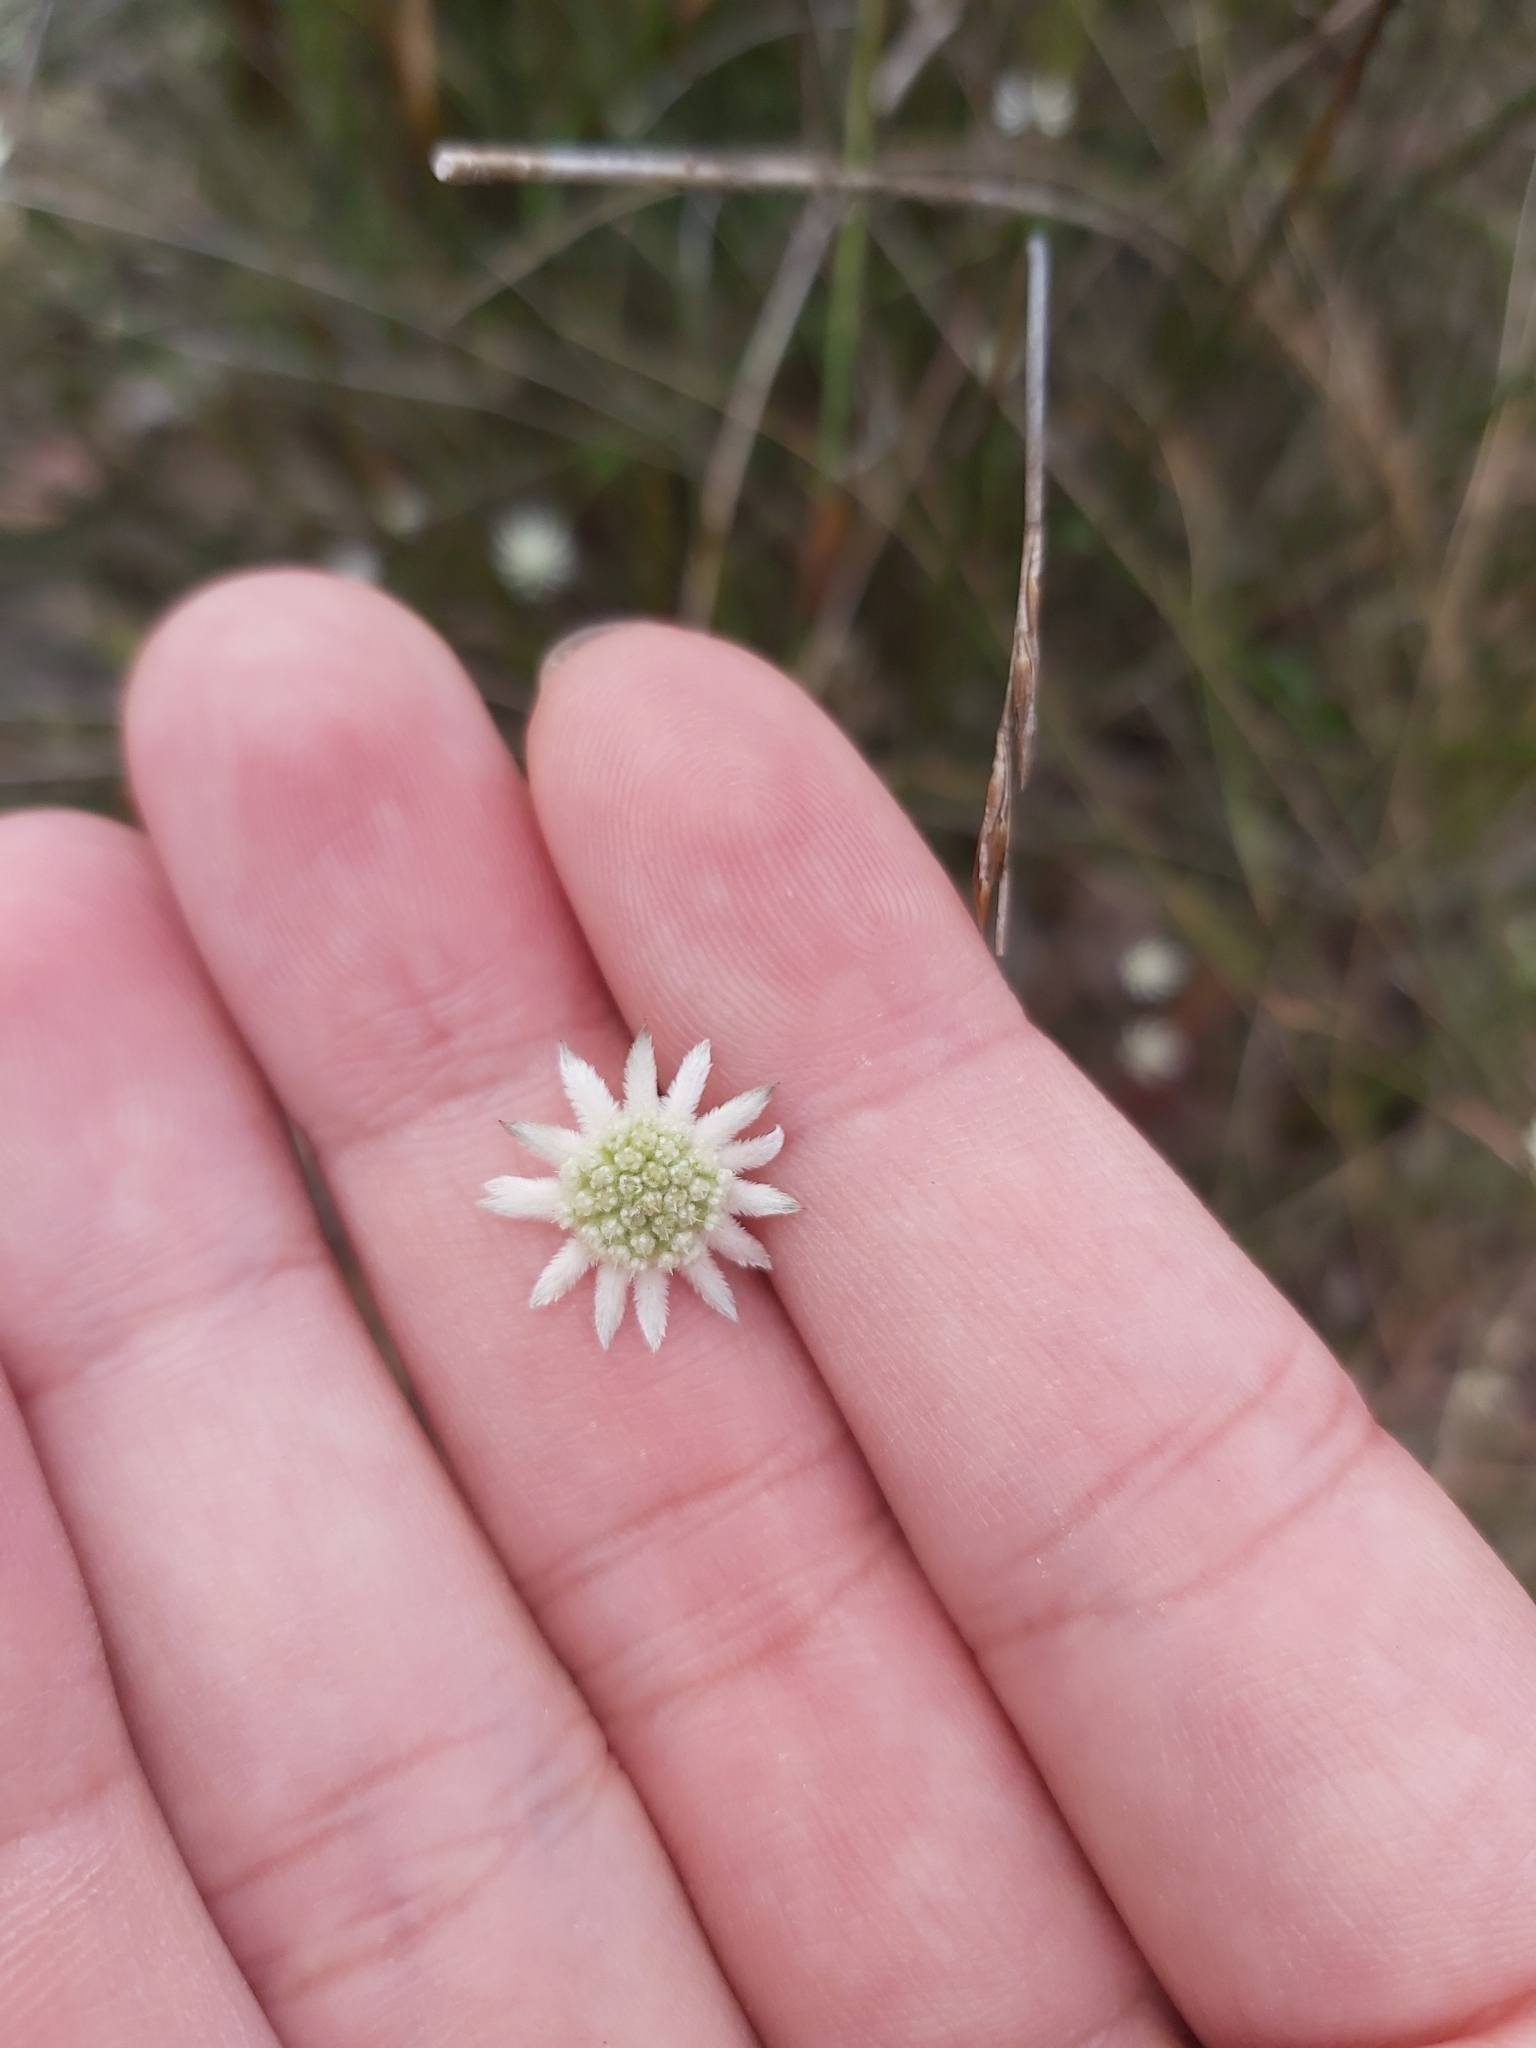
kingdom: Plantae
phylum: Tracheophyta
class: Magnoliopsida
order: Apiales
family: Apiaceae
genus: Actinotus
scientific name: Actinotus minor
